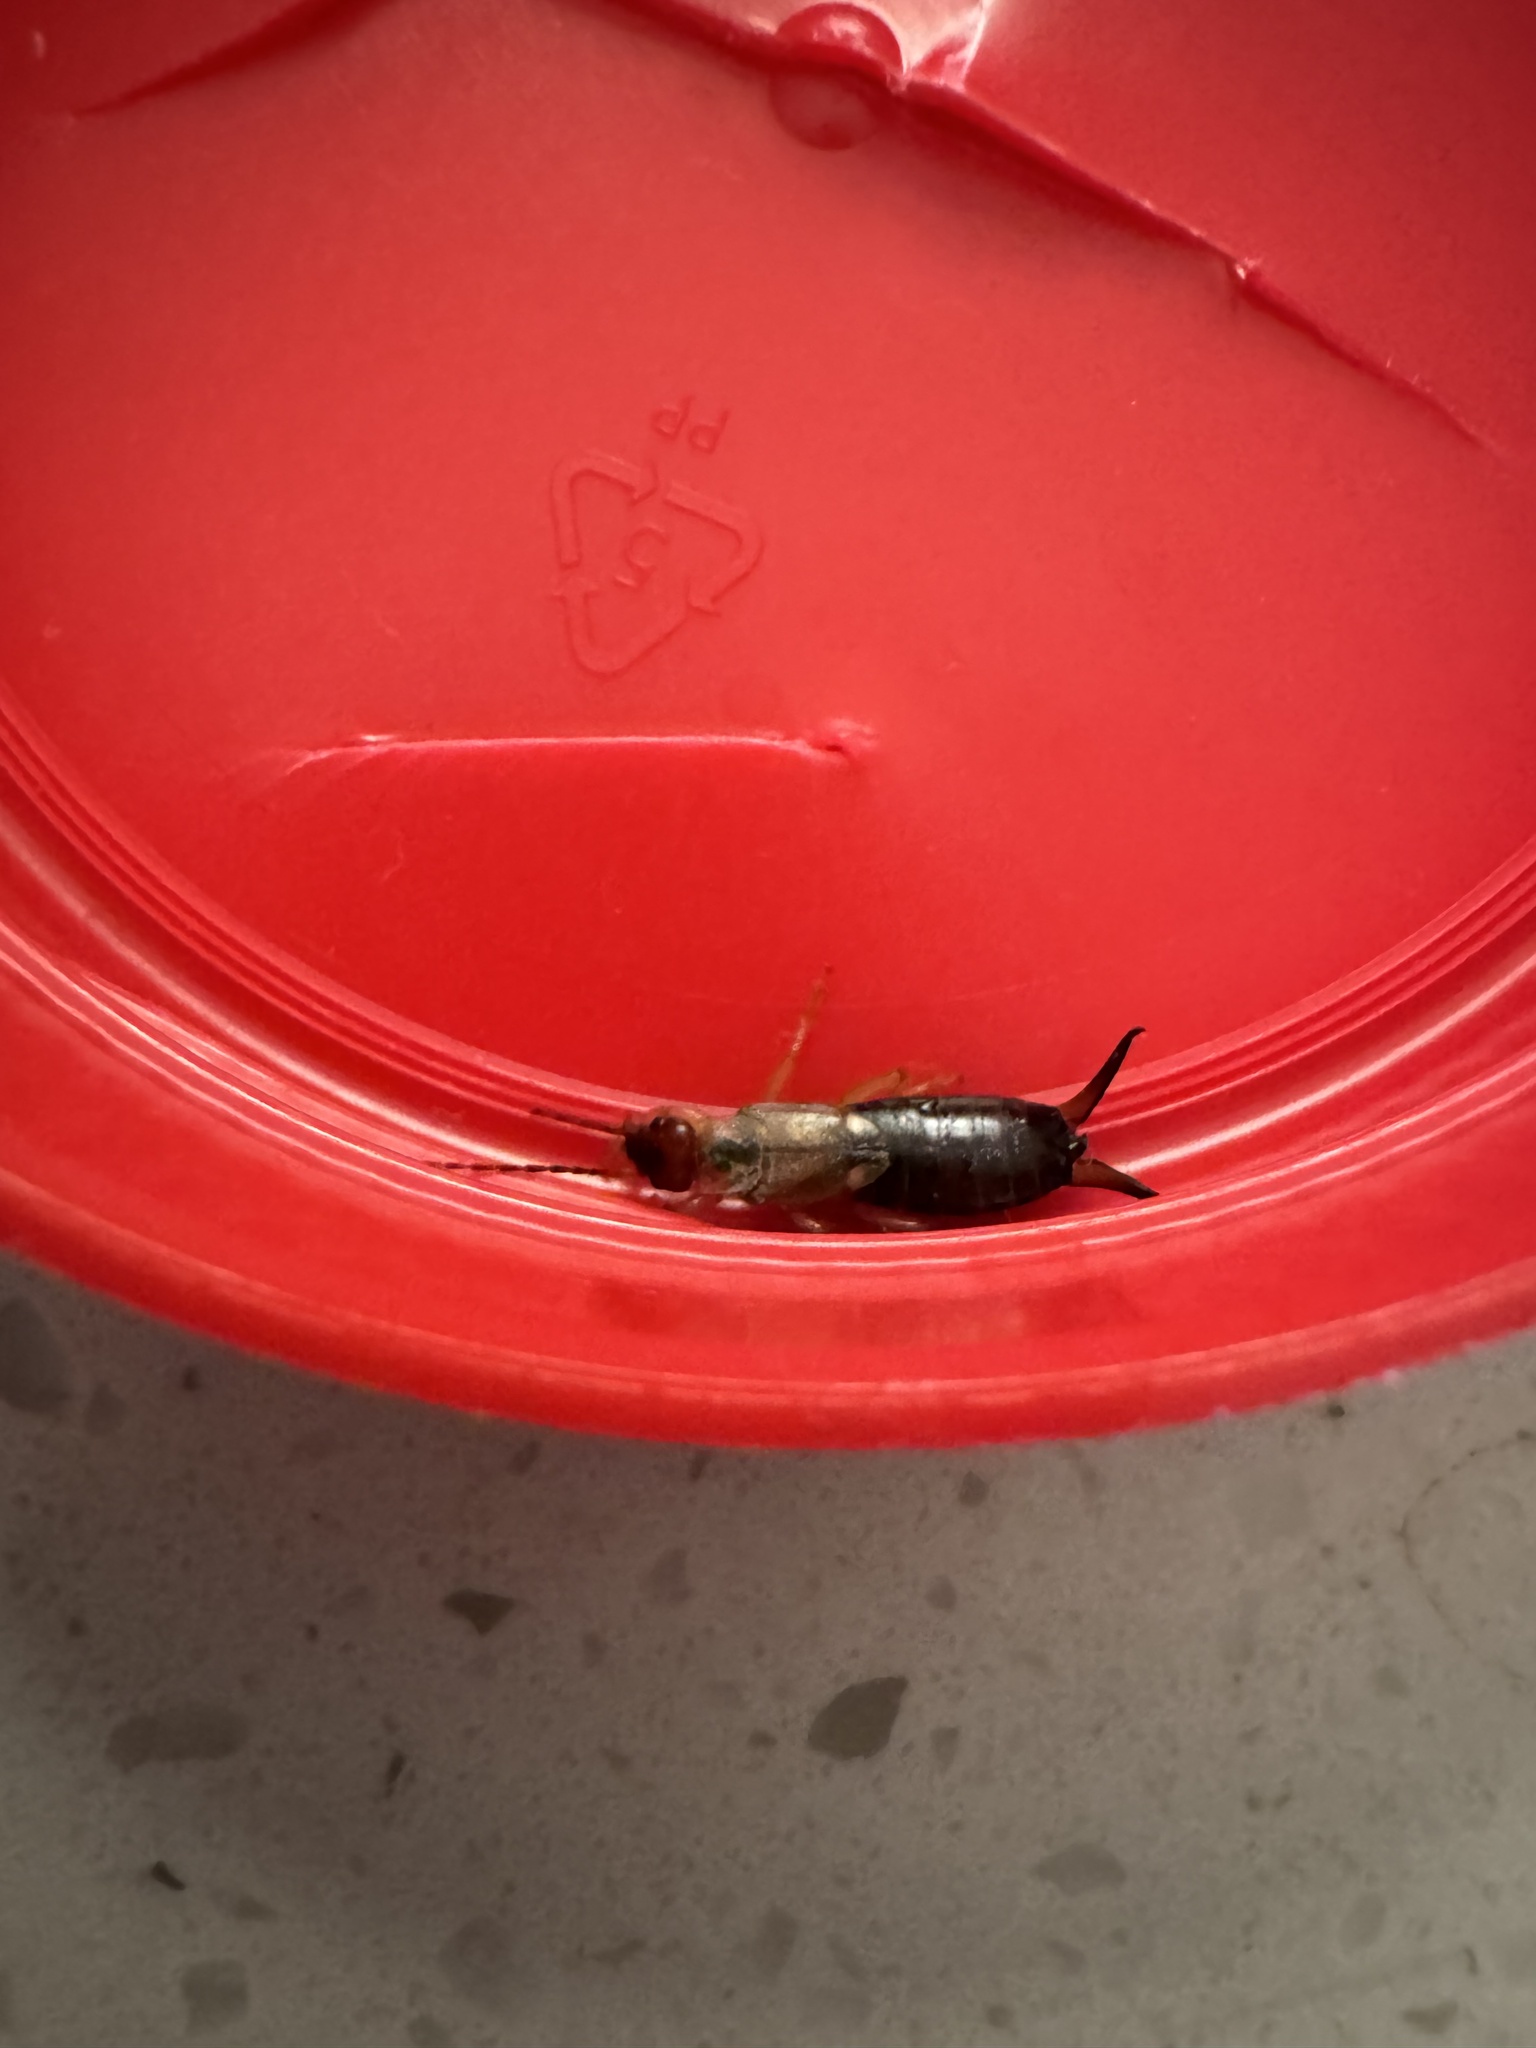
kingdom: Animalia
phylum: Arthropoda
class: Insecta
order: Dermaptera
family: Forficulidae
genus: Forficula
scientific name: Forficula dentata
